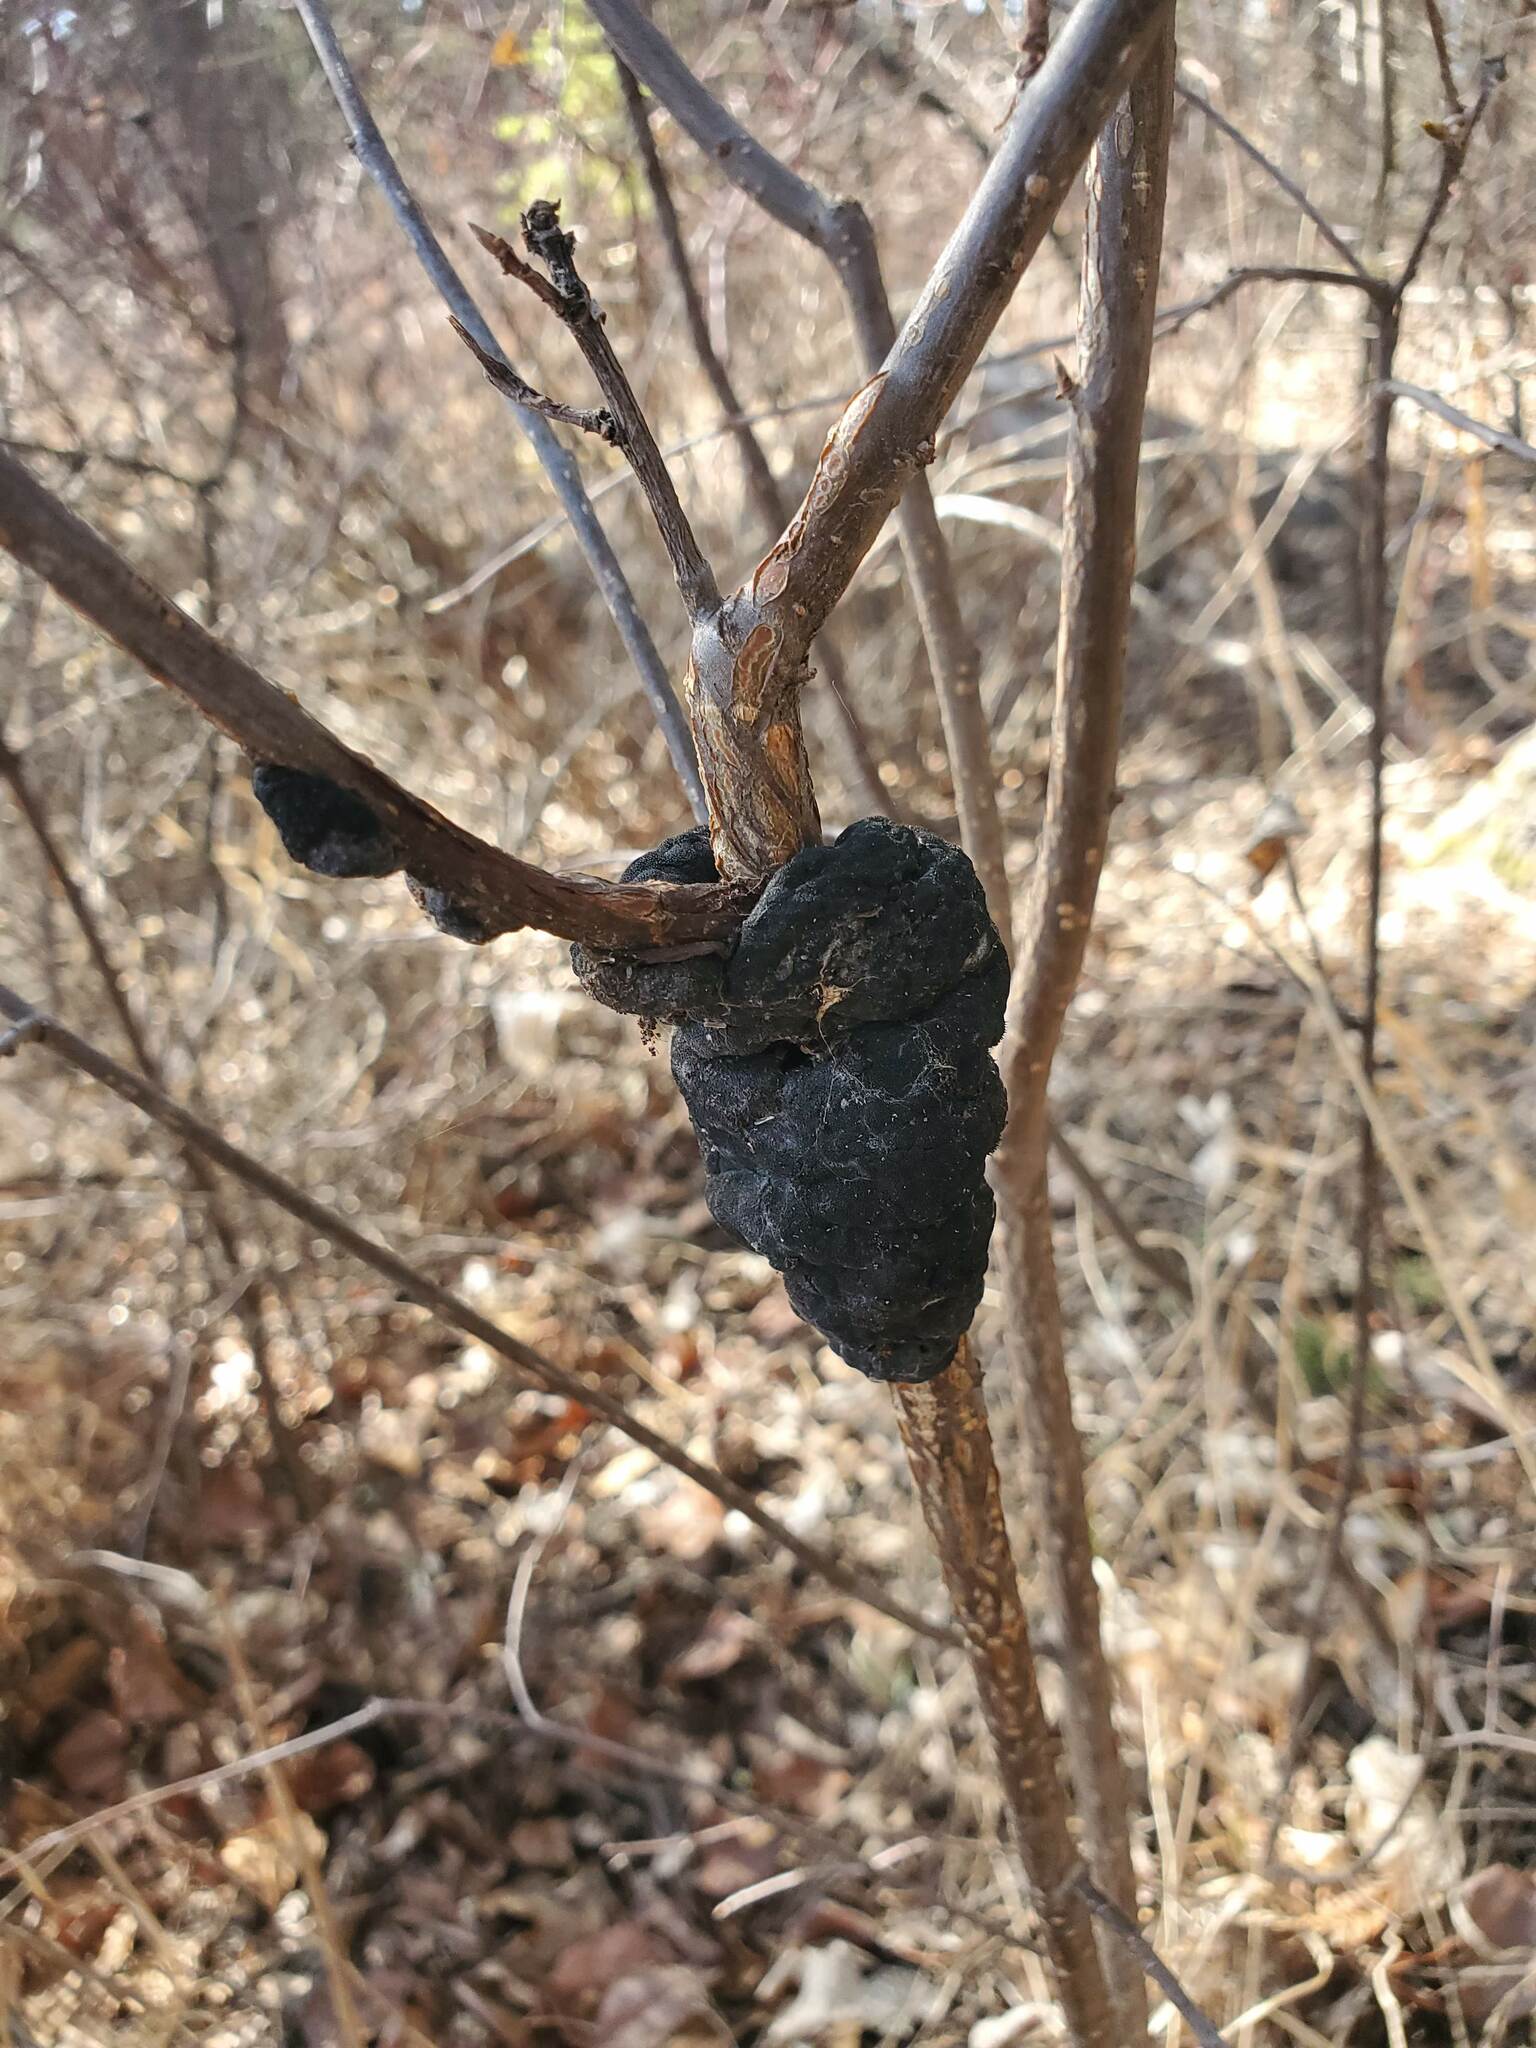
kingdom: Fungi
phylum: Ascomycota
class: Dothideomycetes
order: Venturiales
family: Venturiaceae
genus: Apiosporina
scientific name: Apiosporina morbosa
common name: Black knot
